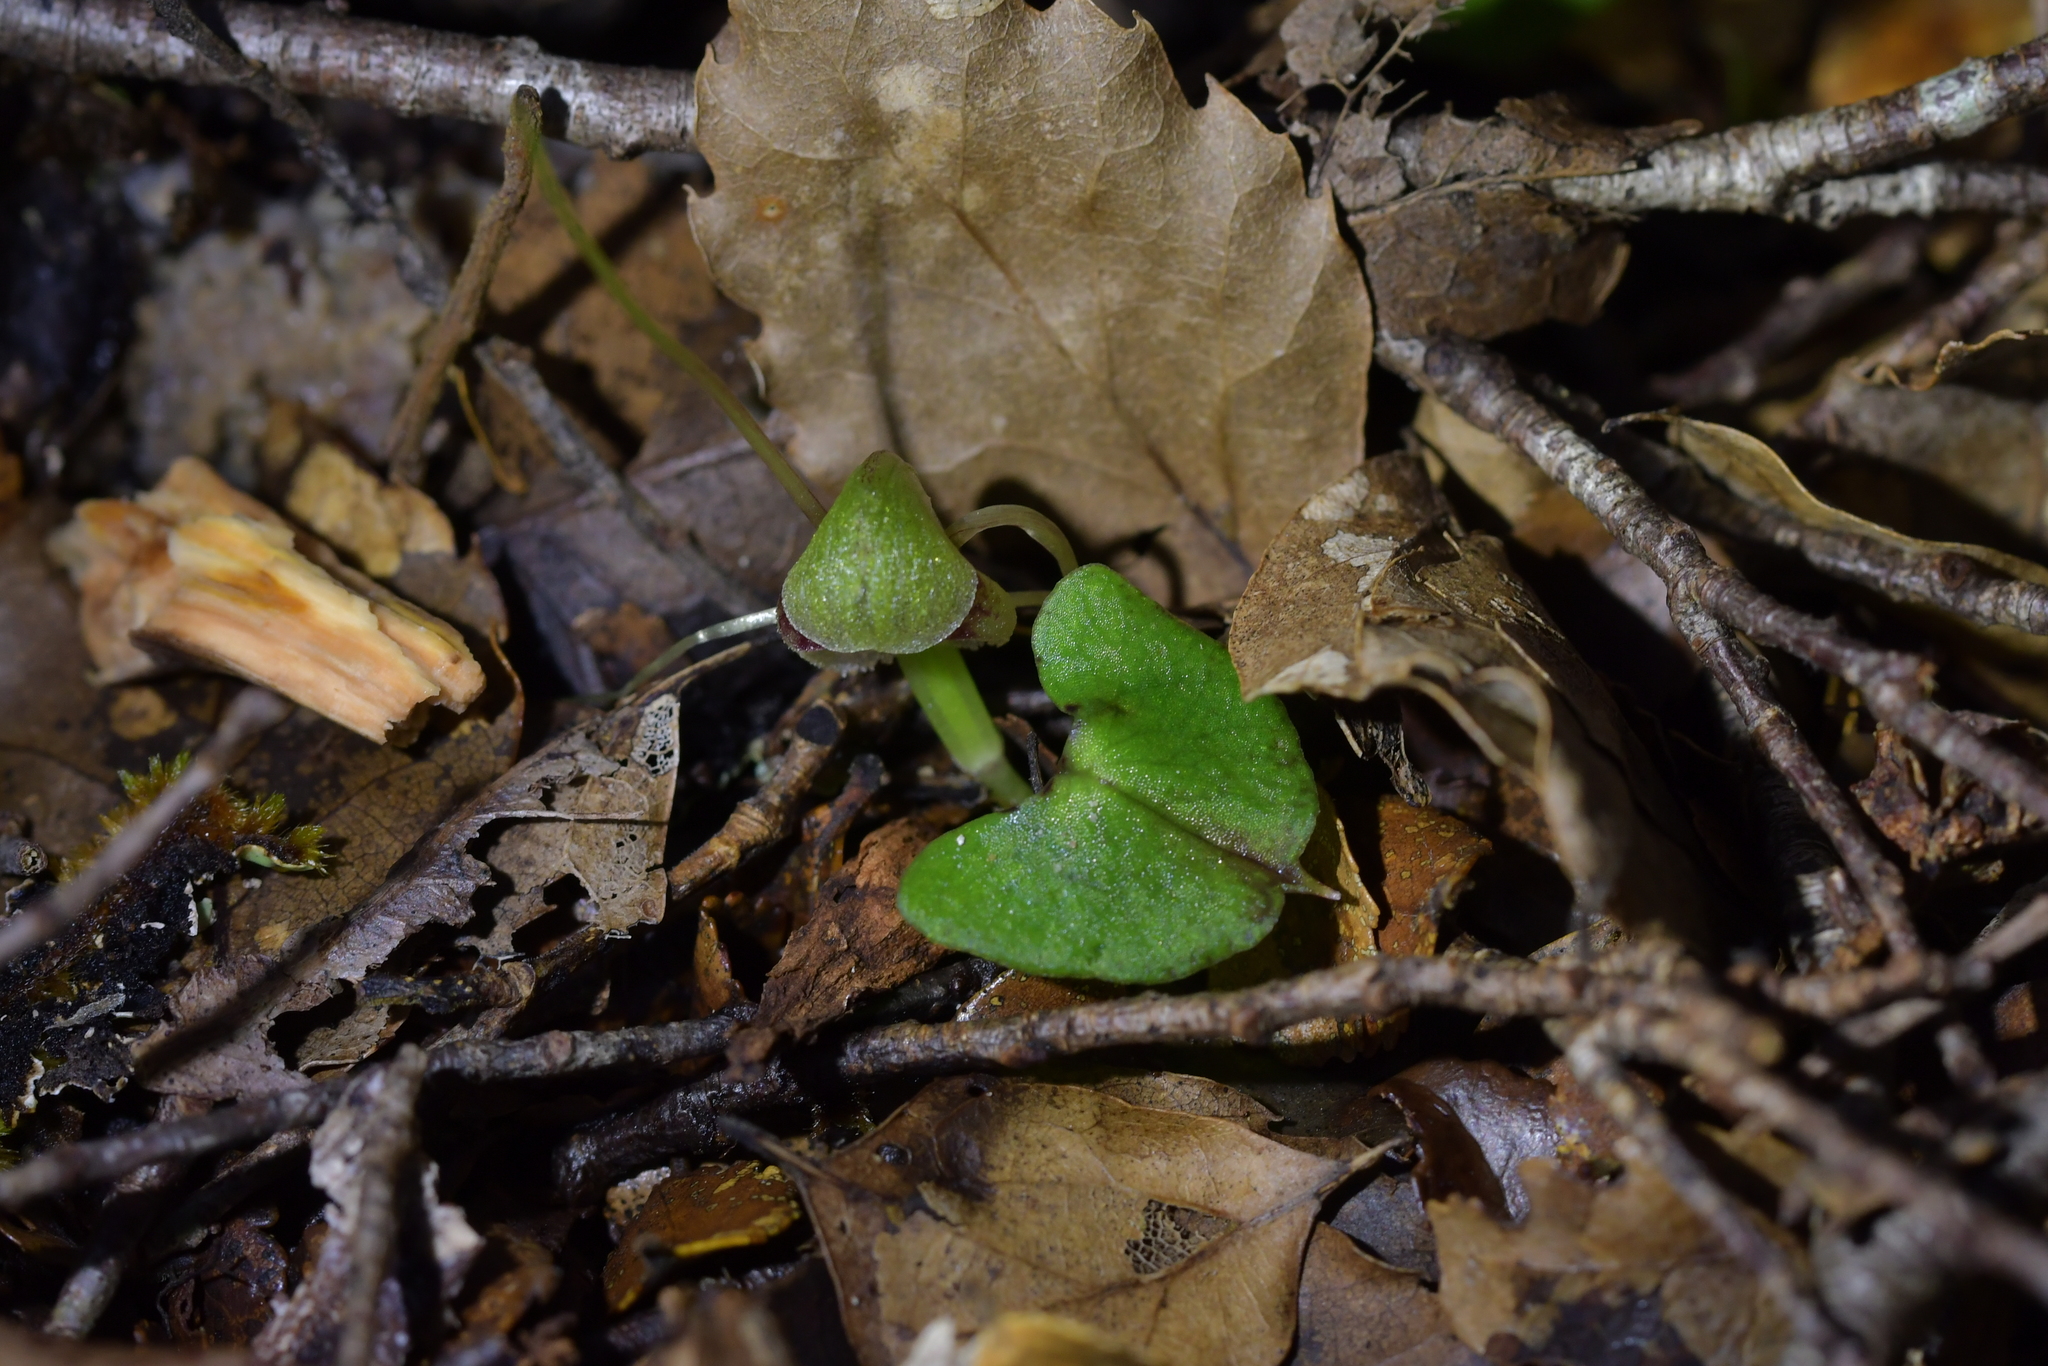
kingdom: Plantae
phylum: Tracheophyta
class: Liliopsida
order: Asparagales
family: Orchidaceae
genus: Corybas
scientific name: Corybas walliae
